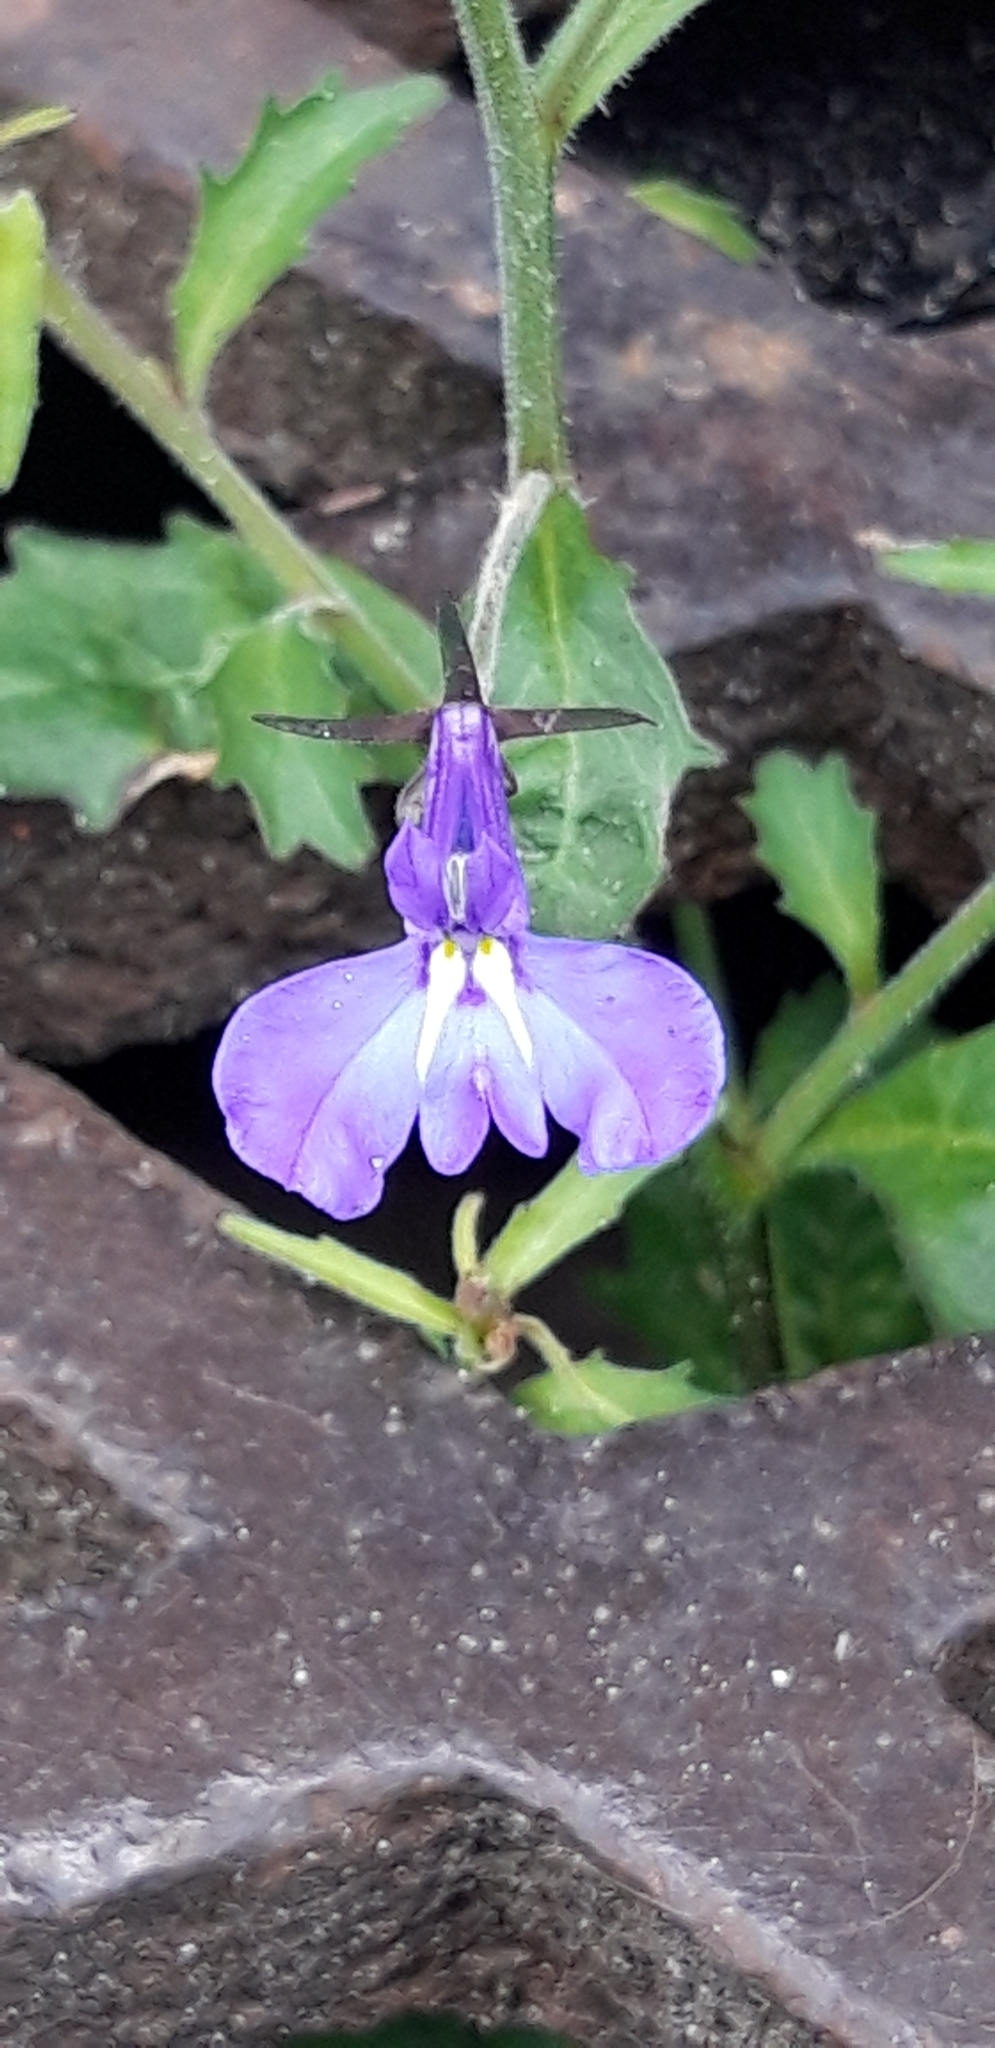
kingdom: Plantae
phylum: Tracheophyta
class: Magnoliopsida
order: Asterales
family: Campanulaceae
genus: Lobelia
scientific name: Lobelia erinus
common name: Edging lobelia
